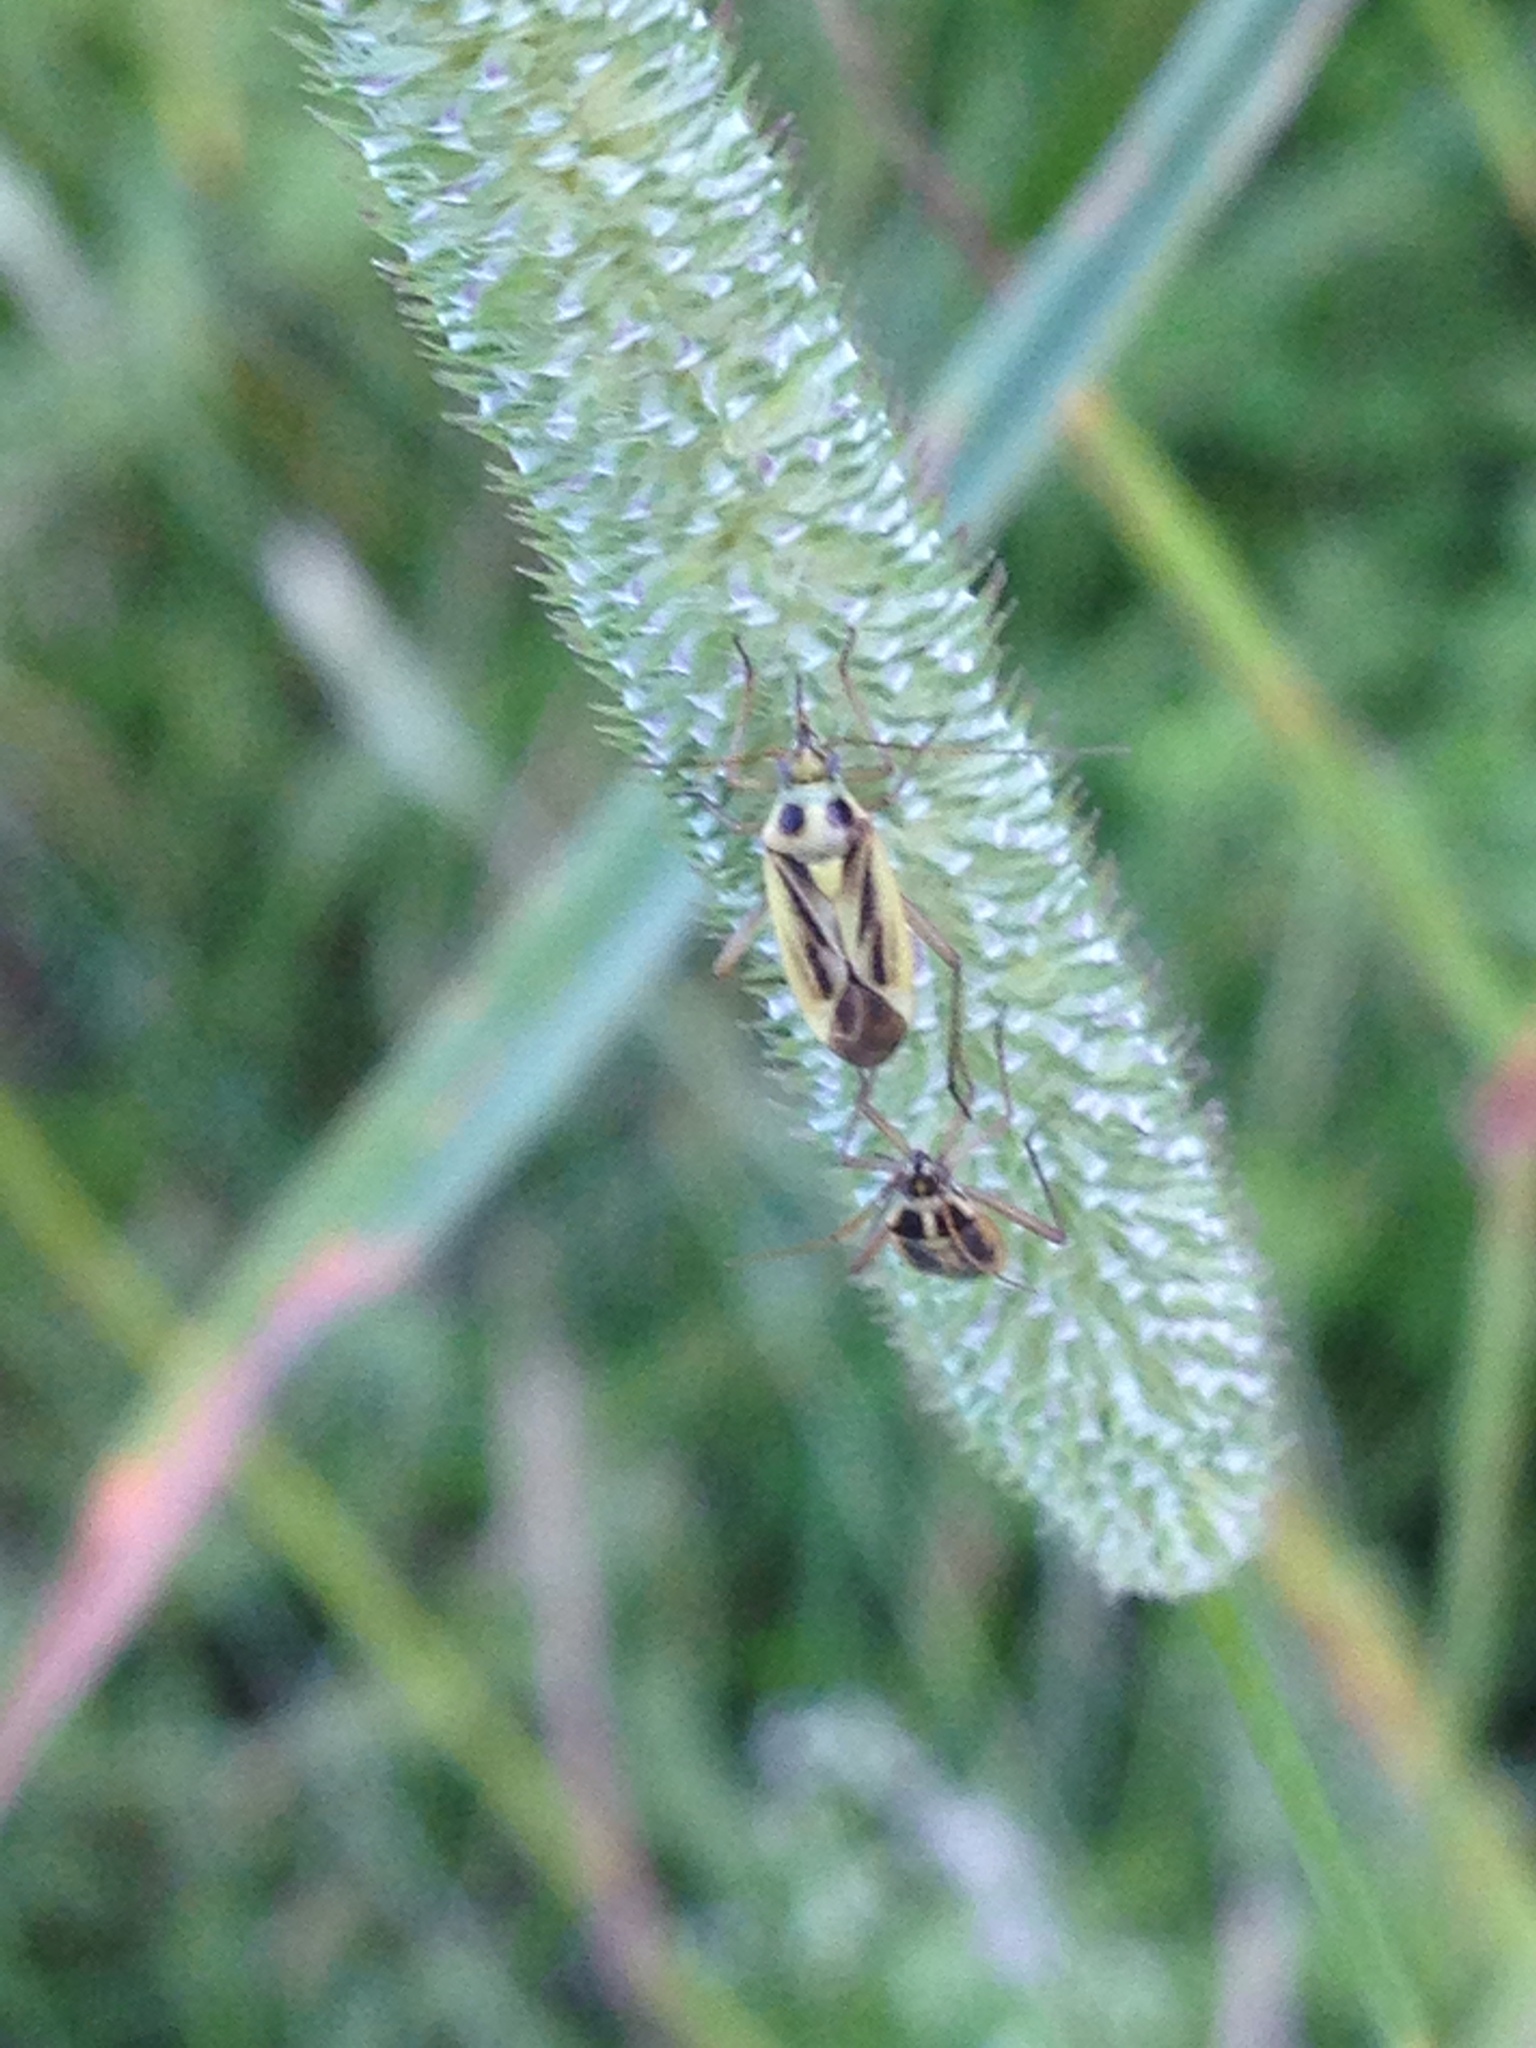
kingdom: Animalia
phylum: Arthropoda
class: Insecta
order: Hemiptera
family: Miridae
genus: Stenotus
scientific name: Stenotus binotatus
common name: Plant bug
